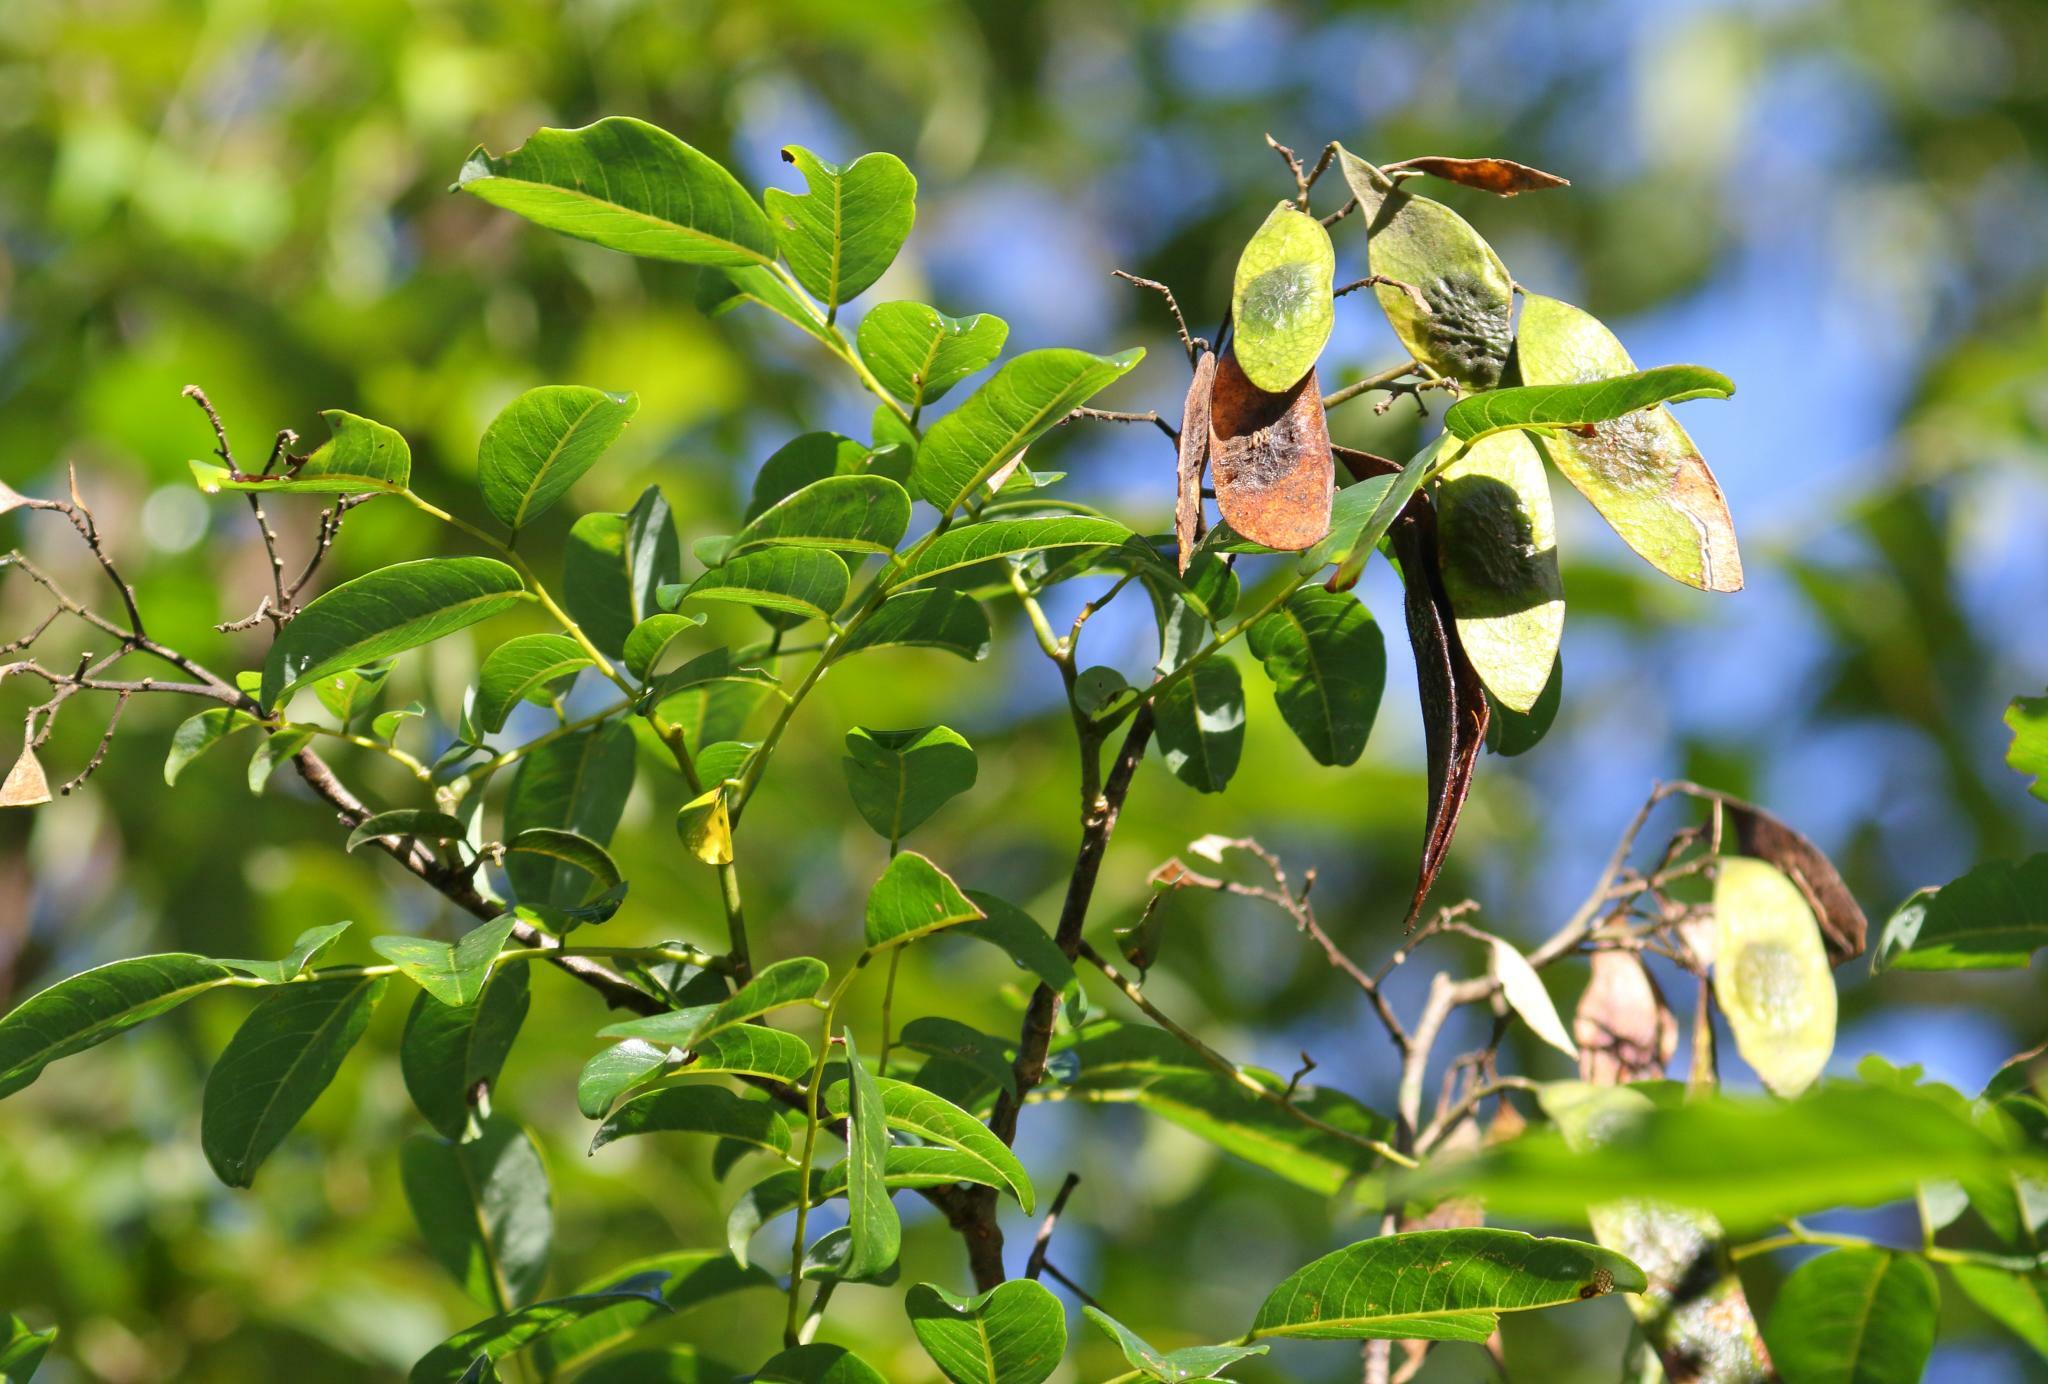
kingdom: Plantae
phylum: Tracheophyta
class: Magnoliopsida
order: Fabales
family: Fabaceae
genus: Dalbergia
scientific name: Dalbergia obovata
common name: Climbing flat-bean
